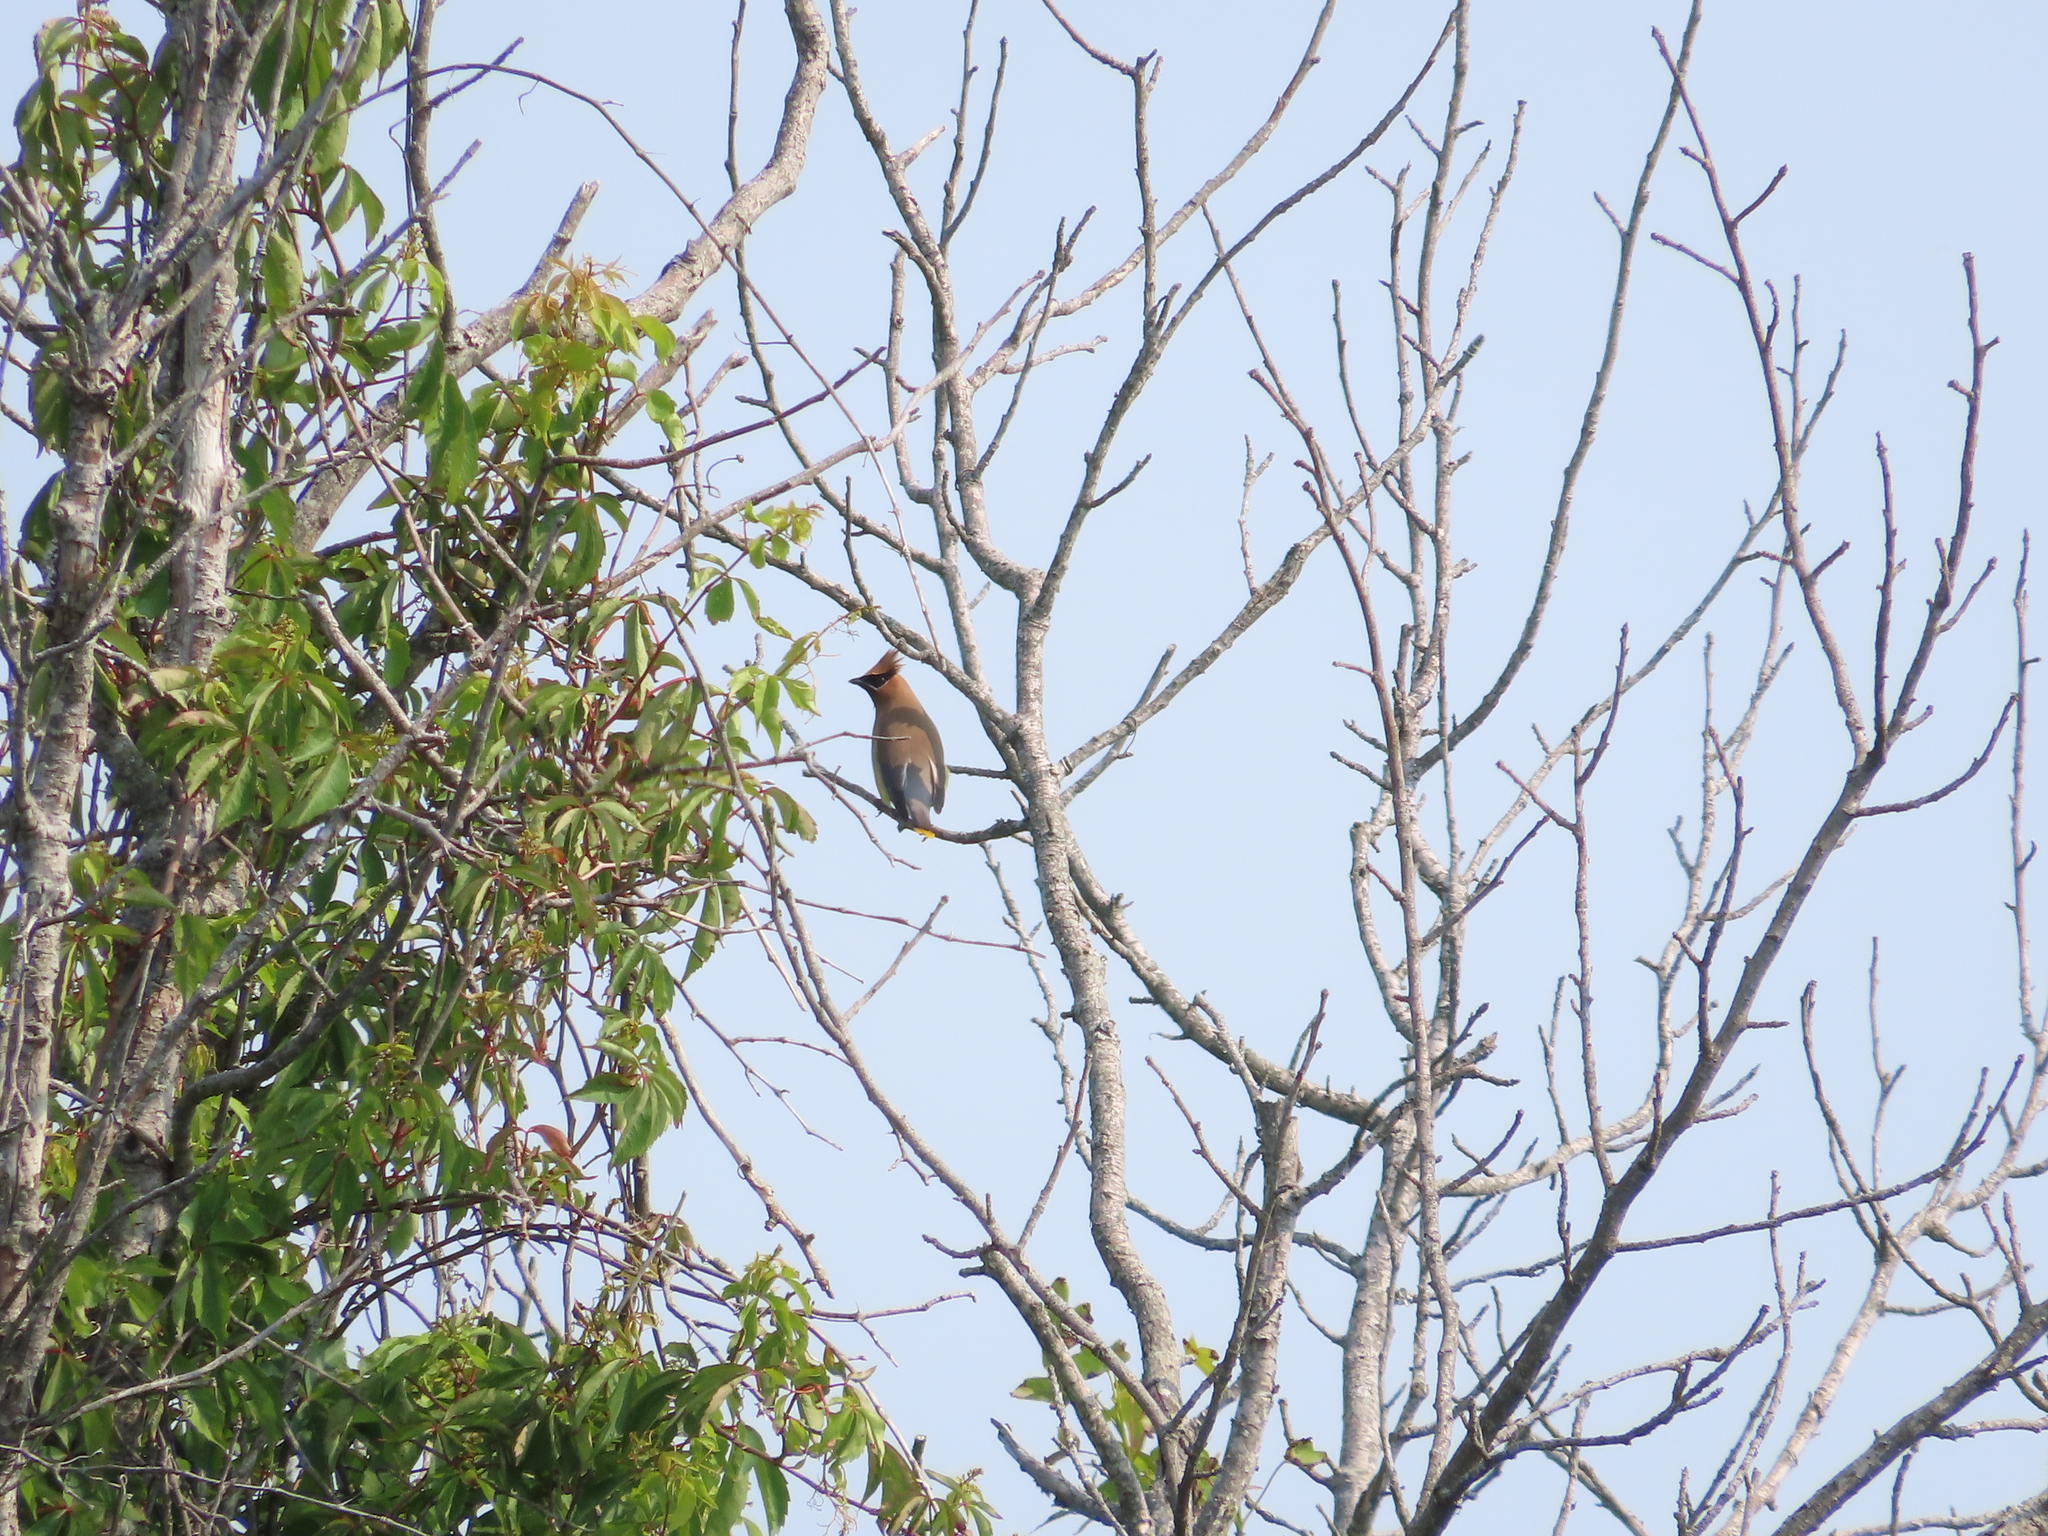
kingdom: Animalia
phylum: Chordata
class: Aves
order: Passeriformes
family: Bombycillidae
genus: Bombycilla
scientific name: Bombycilla cedrorum
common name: Cedar waxwing
